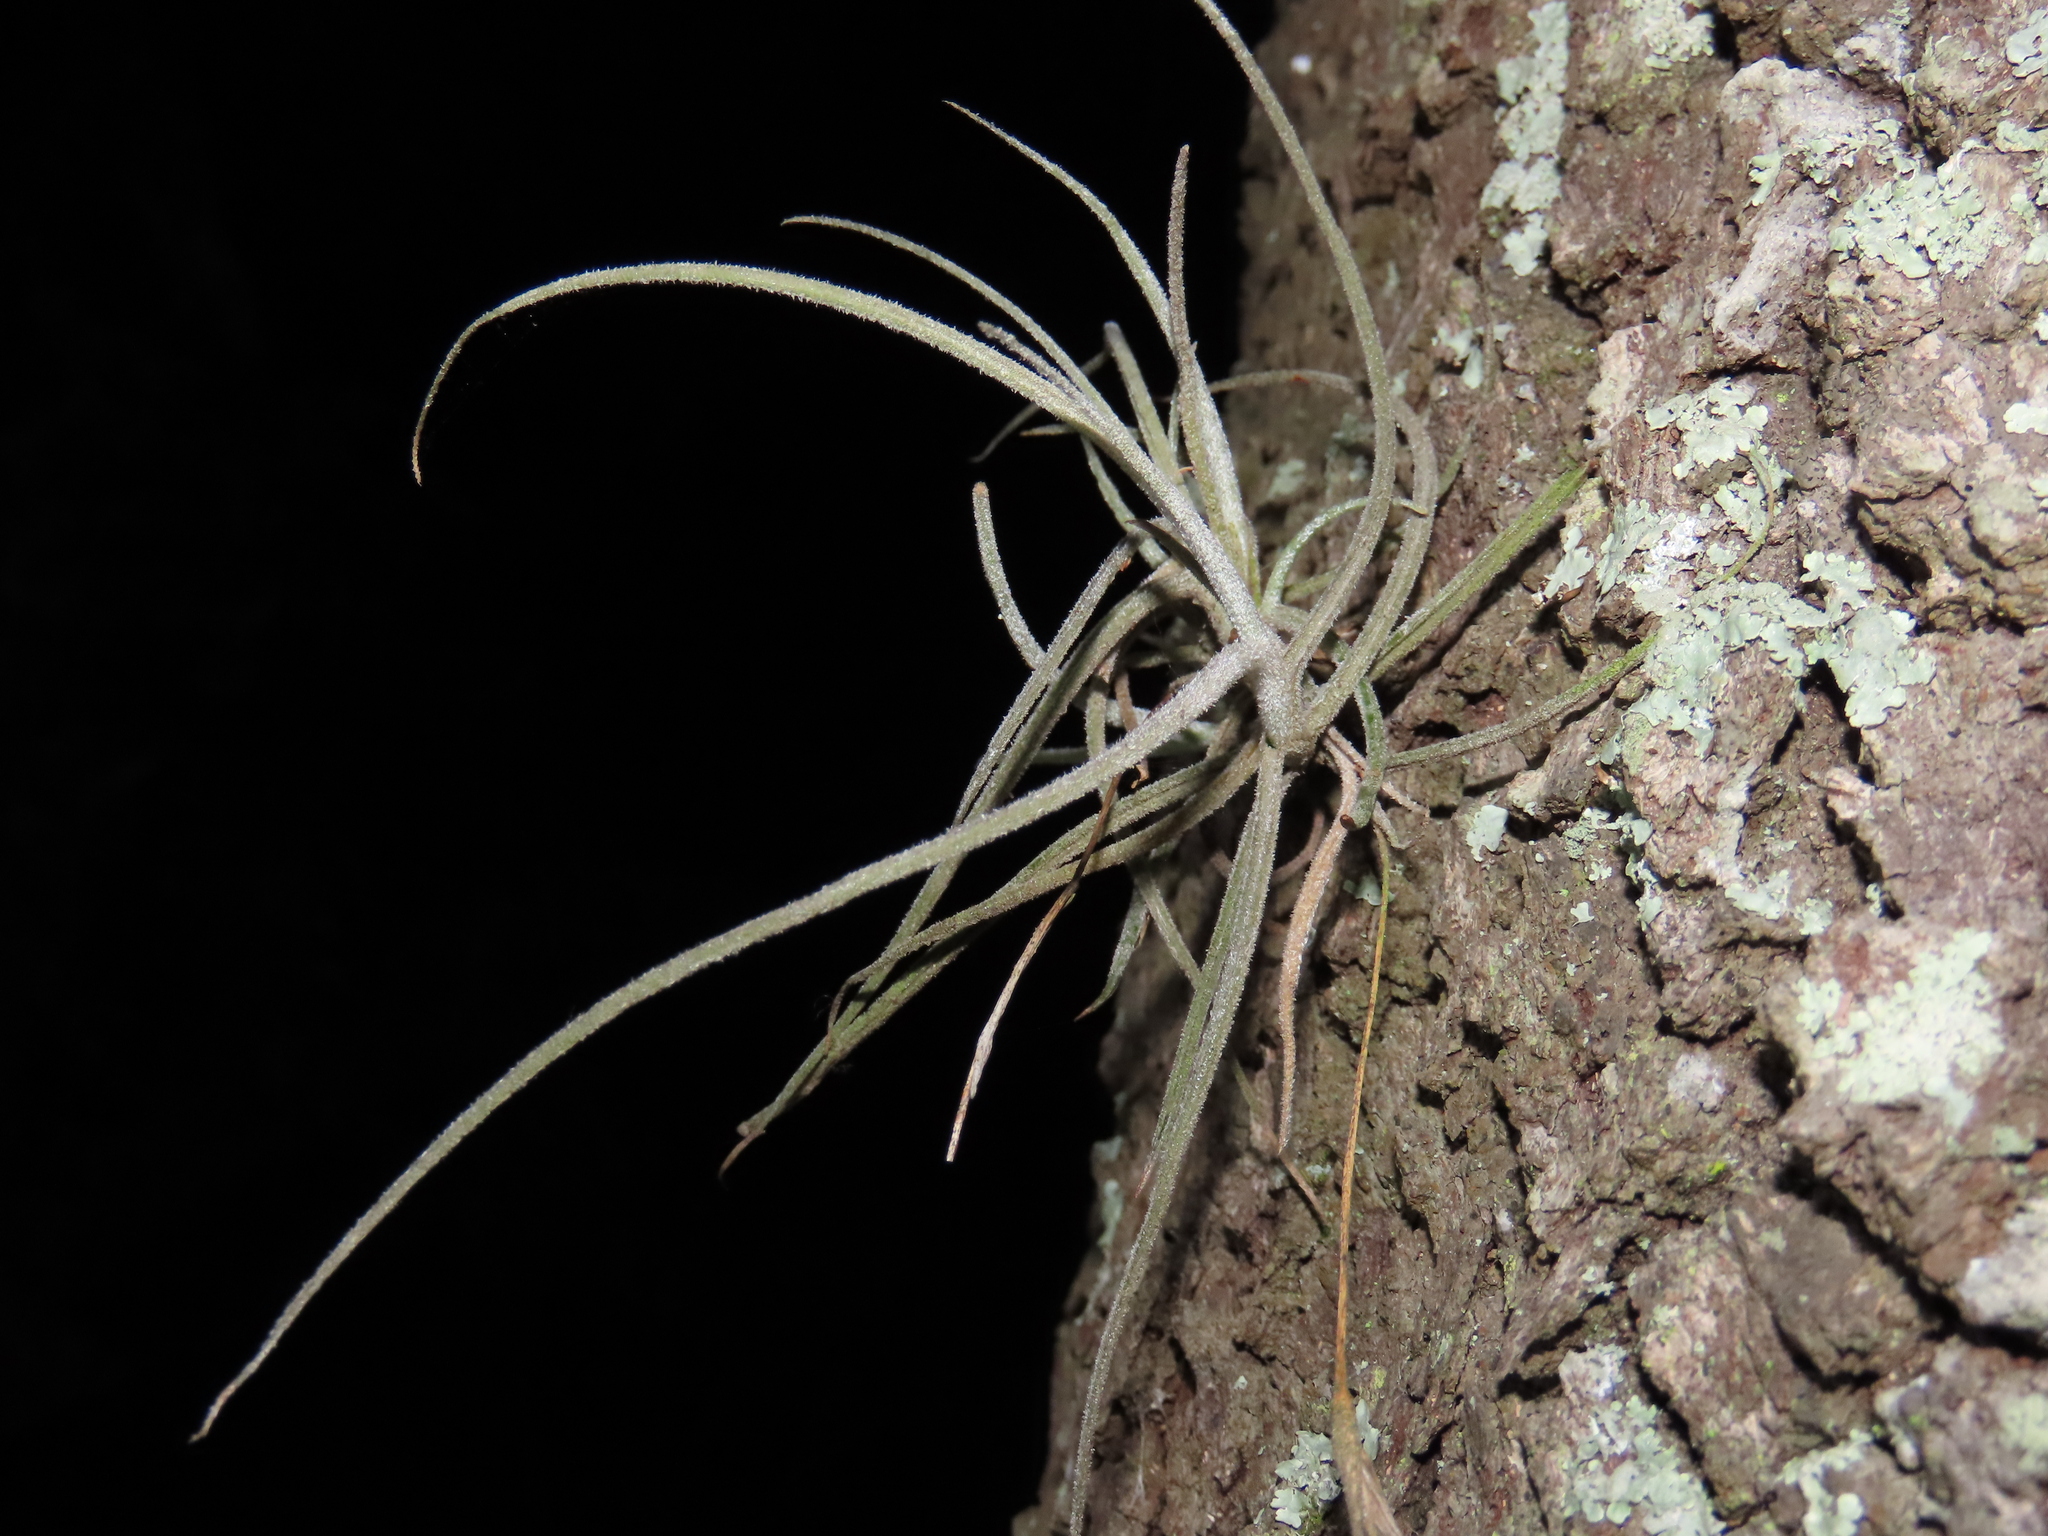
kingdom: Plantae
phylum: Tracheophyta
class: Liliopsida
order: Poales
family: Bromeliaceae
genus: Tillandsia
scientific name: Tillandsia recurvata
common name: Small ballmoss
